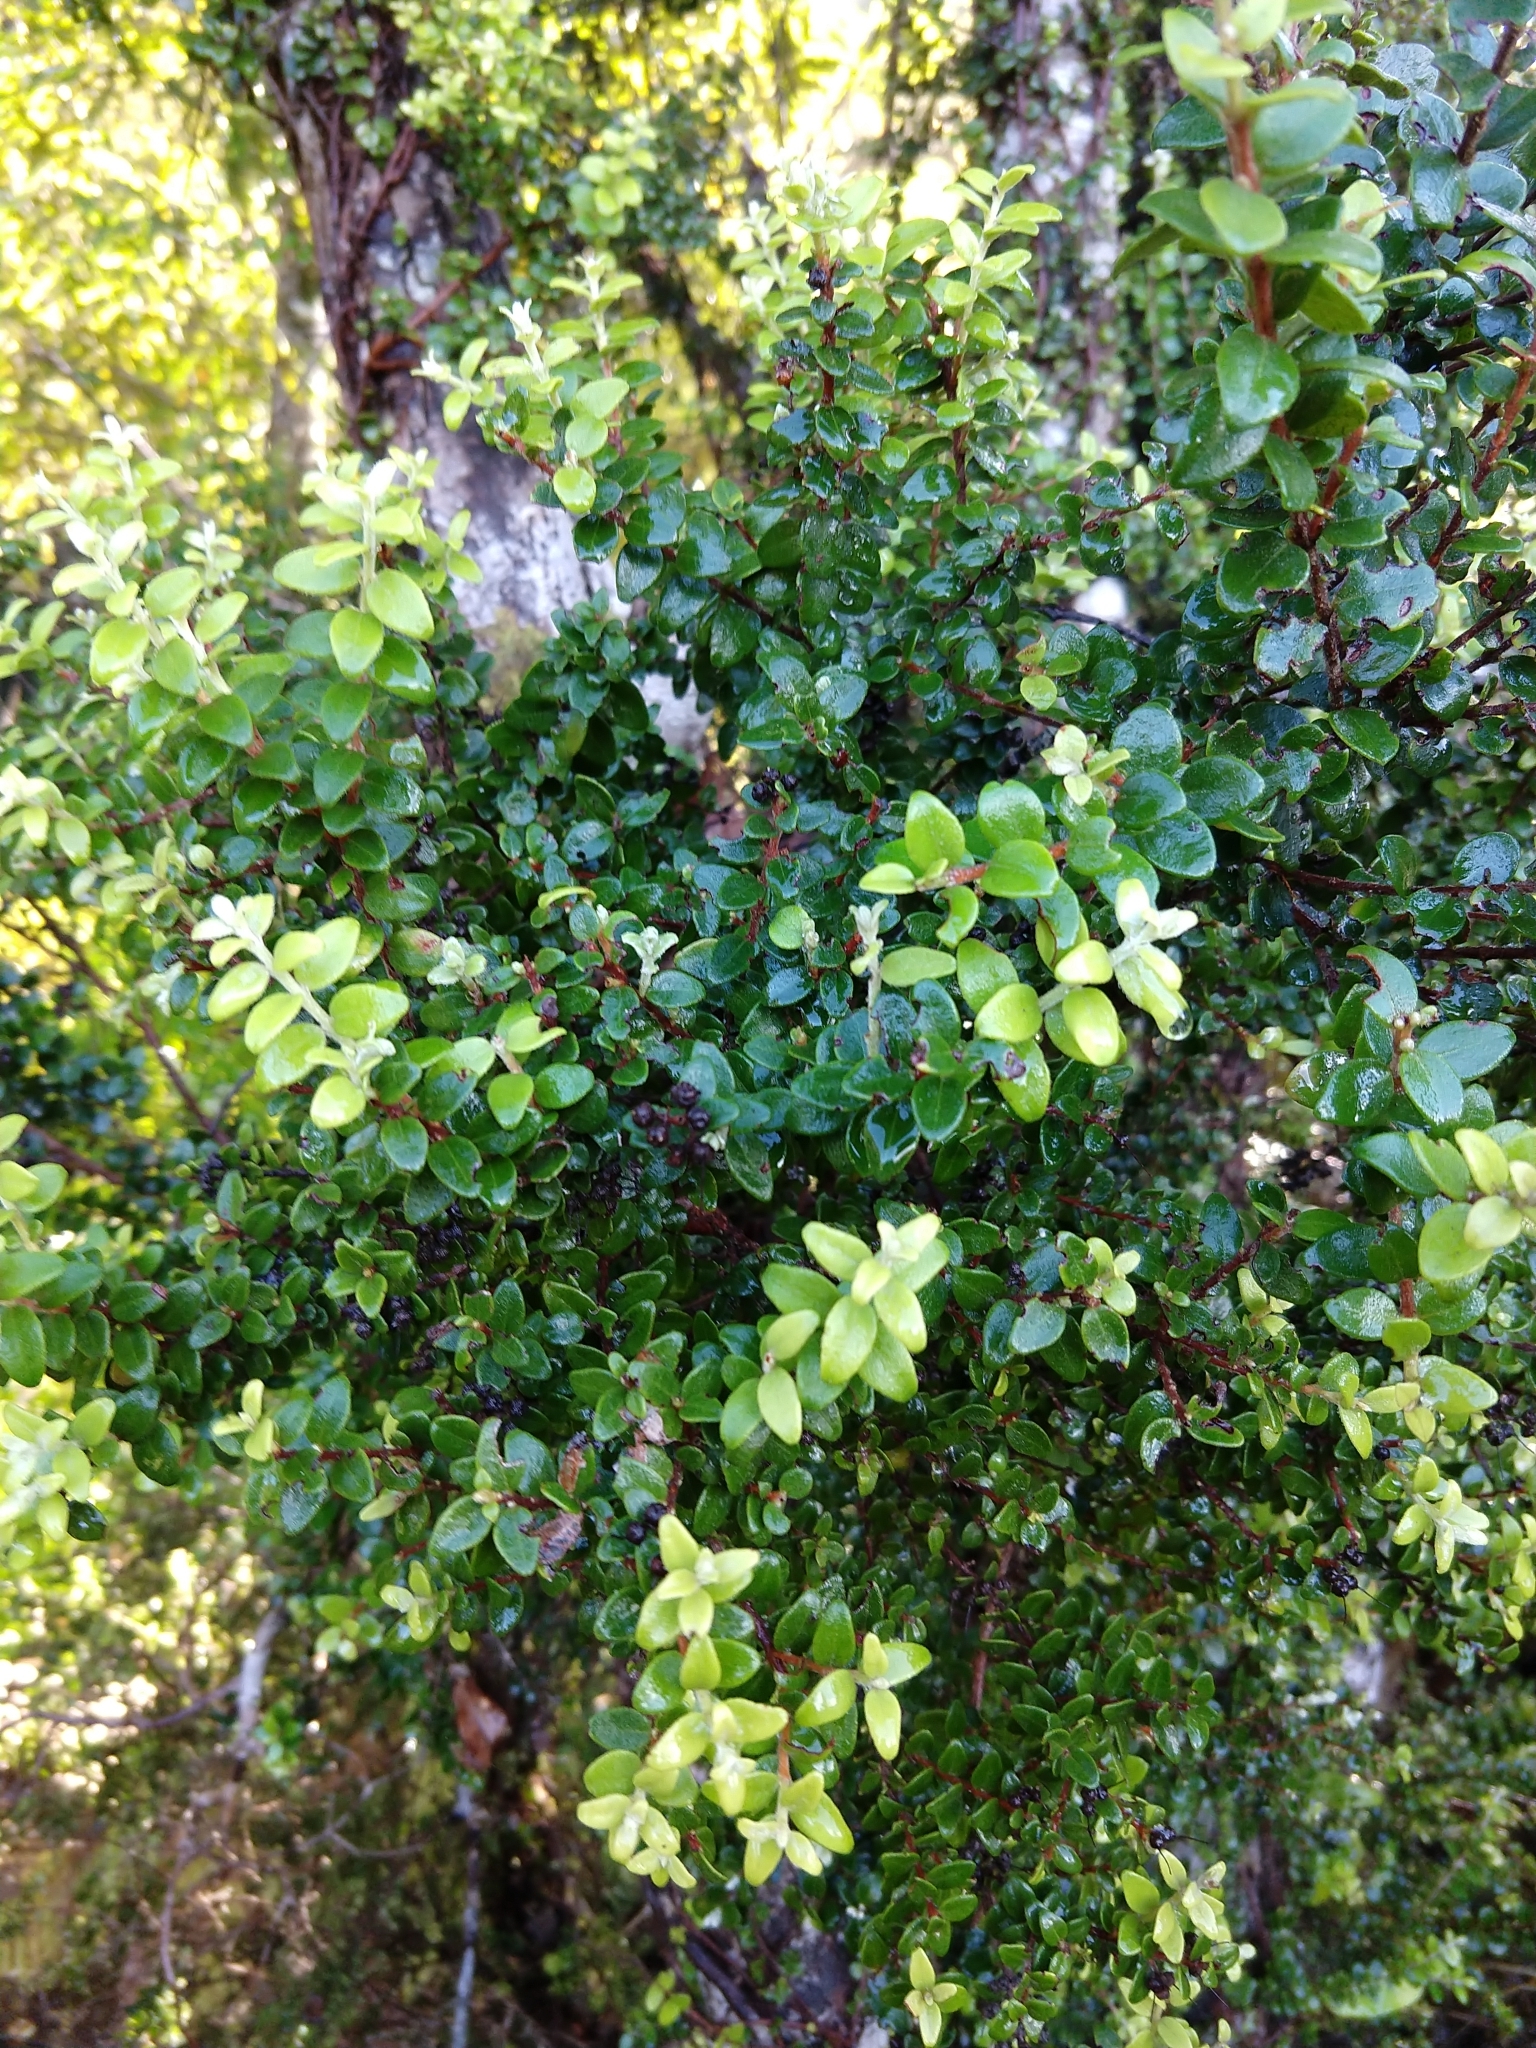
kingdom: Plantae
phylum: Tracheophyta
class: Magnoliopsida
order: Myrtales
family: Myrtaceae
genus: Metrosideros
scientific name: Metrosideros perforata
